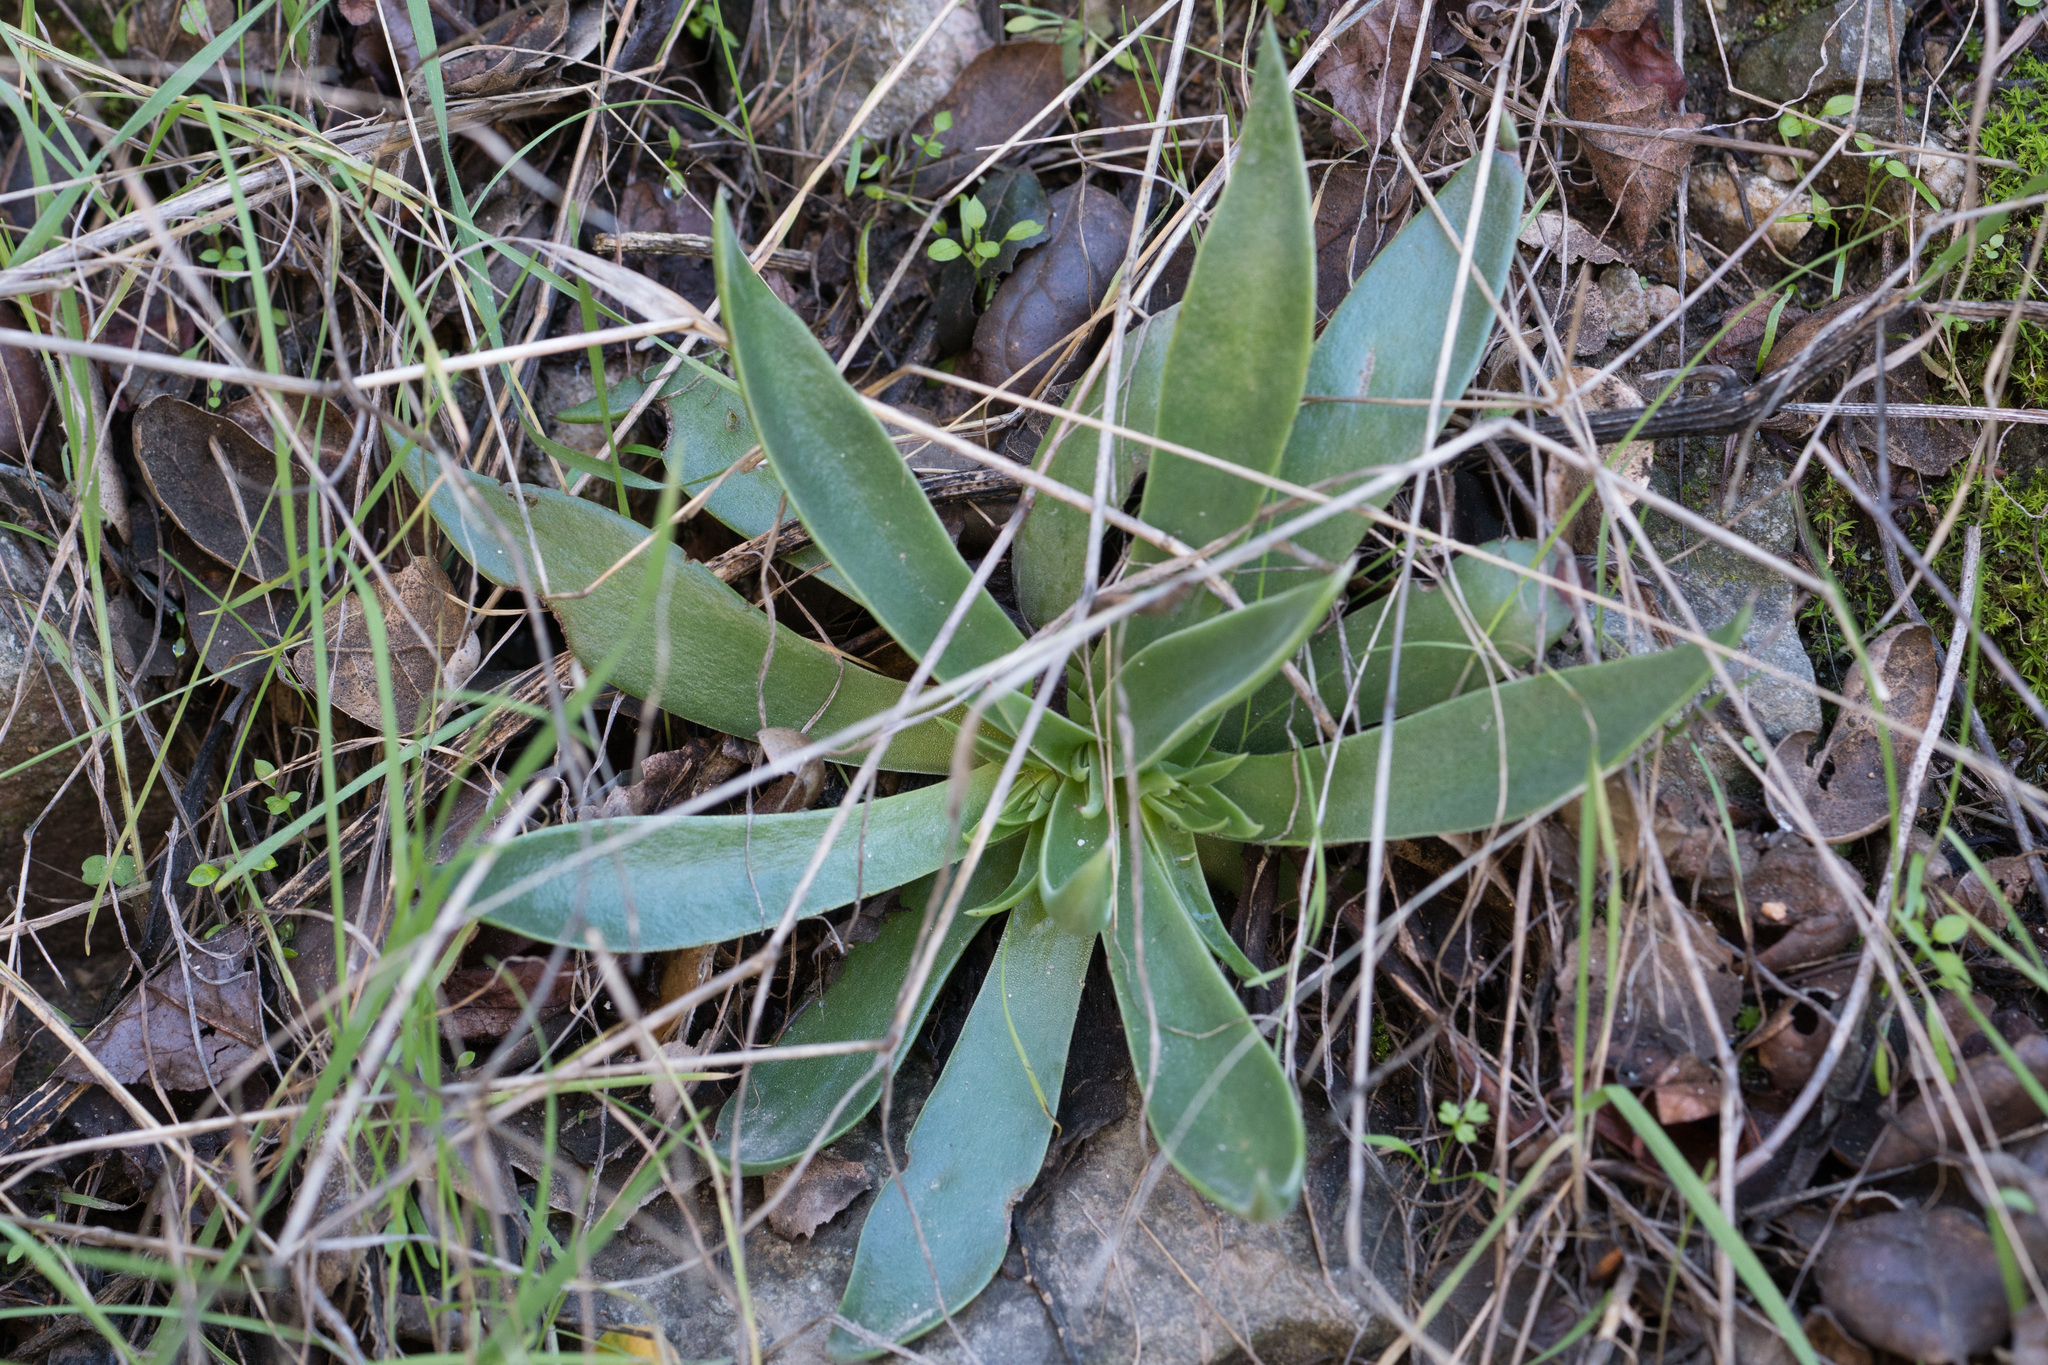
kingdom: Plantae
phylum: Tracheophyta
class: Magnoliopsida
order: Saxifragales
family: Crassulaceae
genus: Dudleya
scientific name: Dudleya lanceolata
